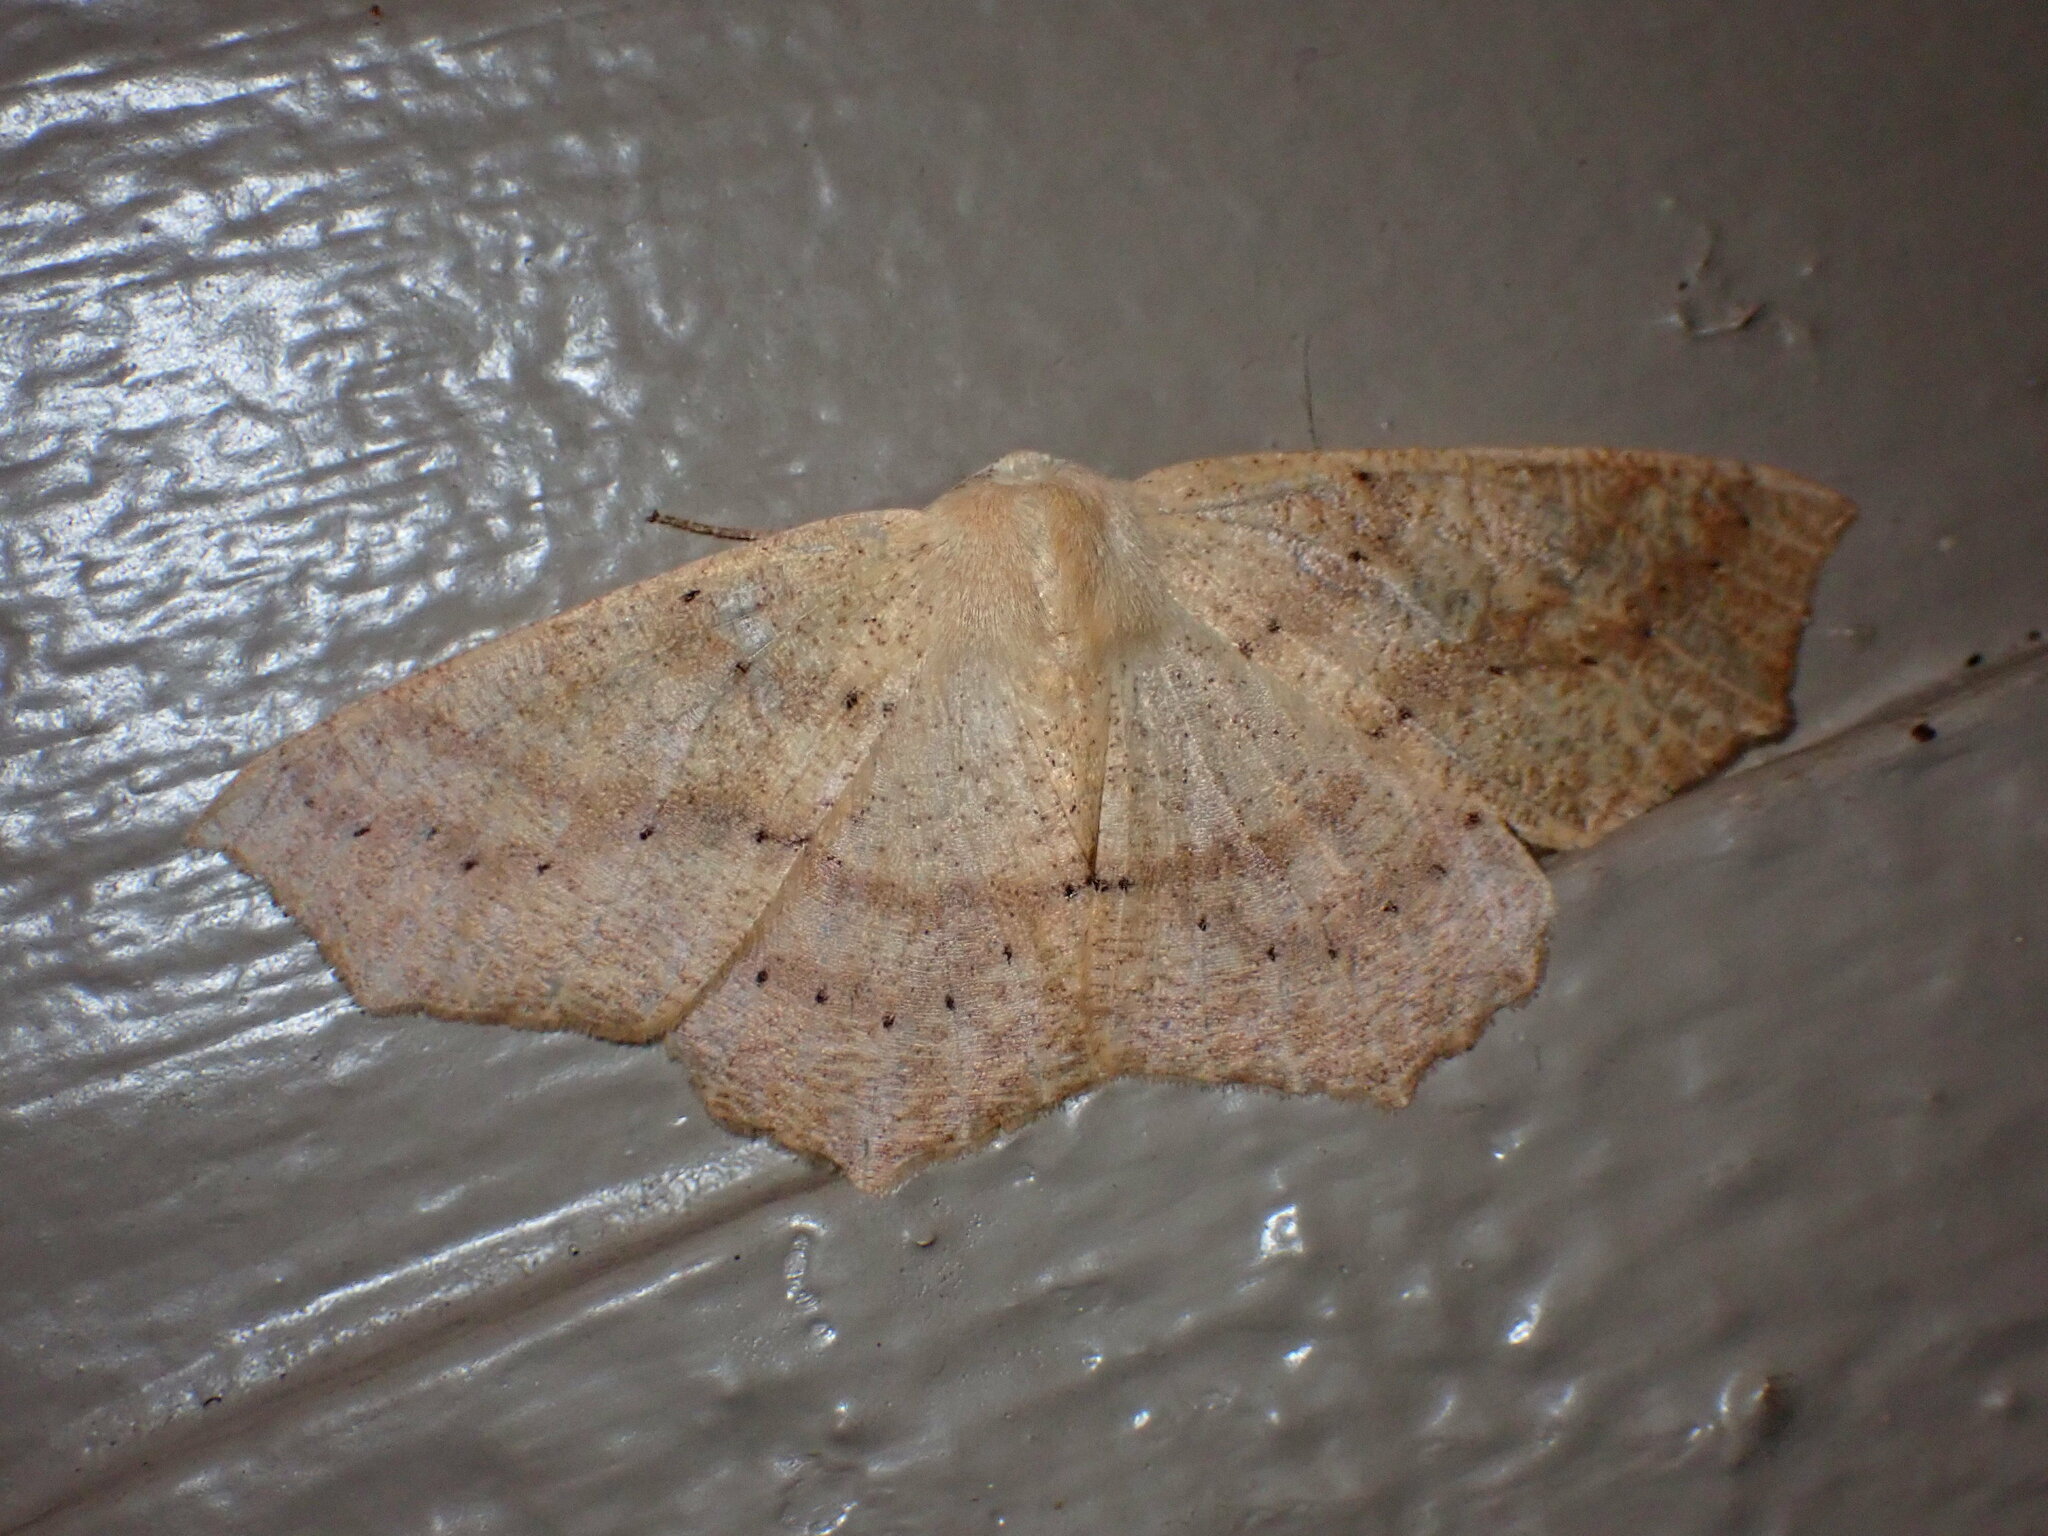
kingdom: Animalia
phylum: Arthropoda
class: Insecta
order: Lepidoptera
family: Geometridae
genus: Sabulodes
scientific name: Sabulodes aegrotata
